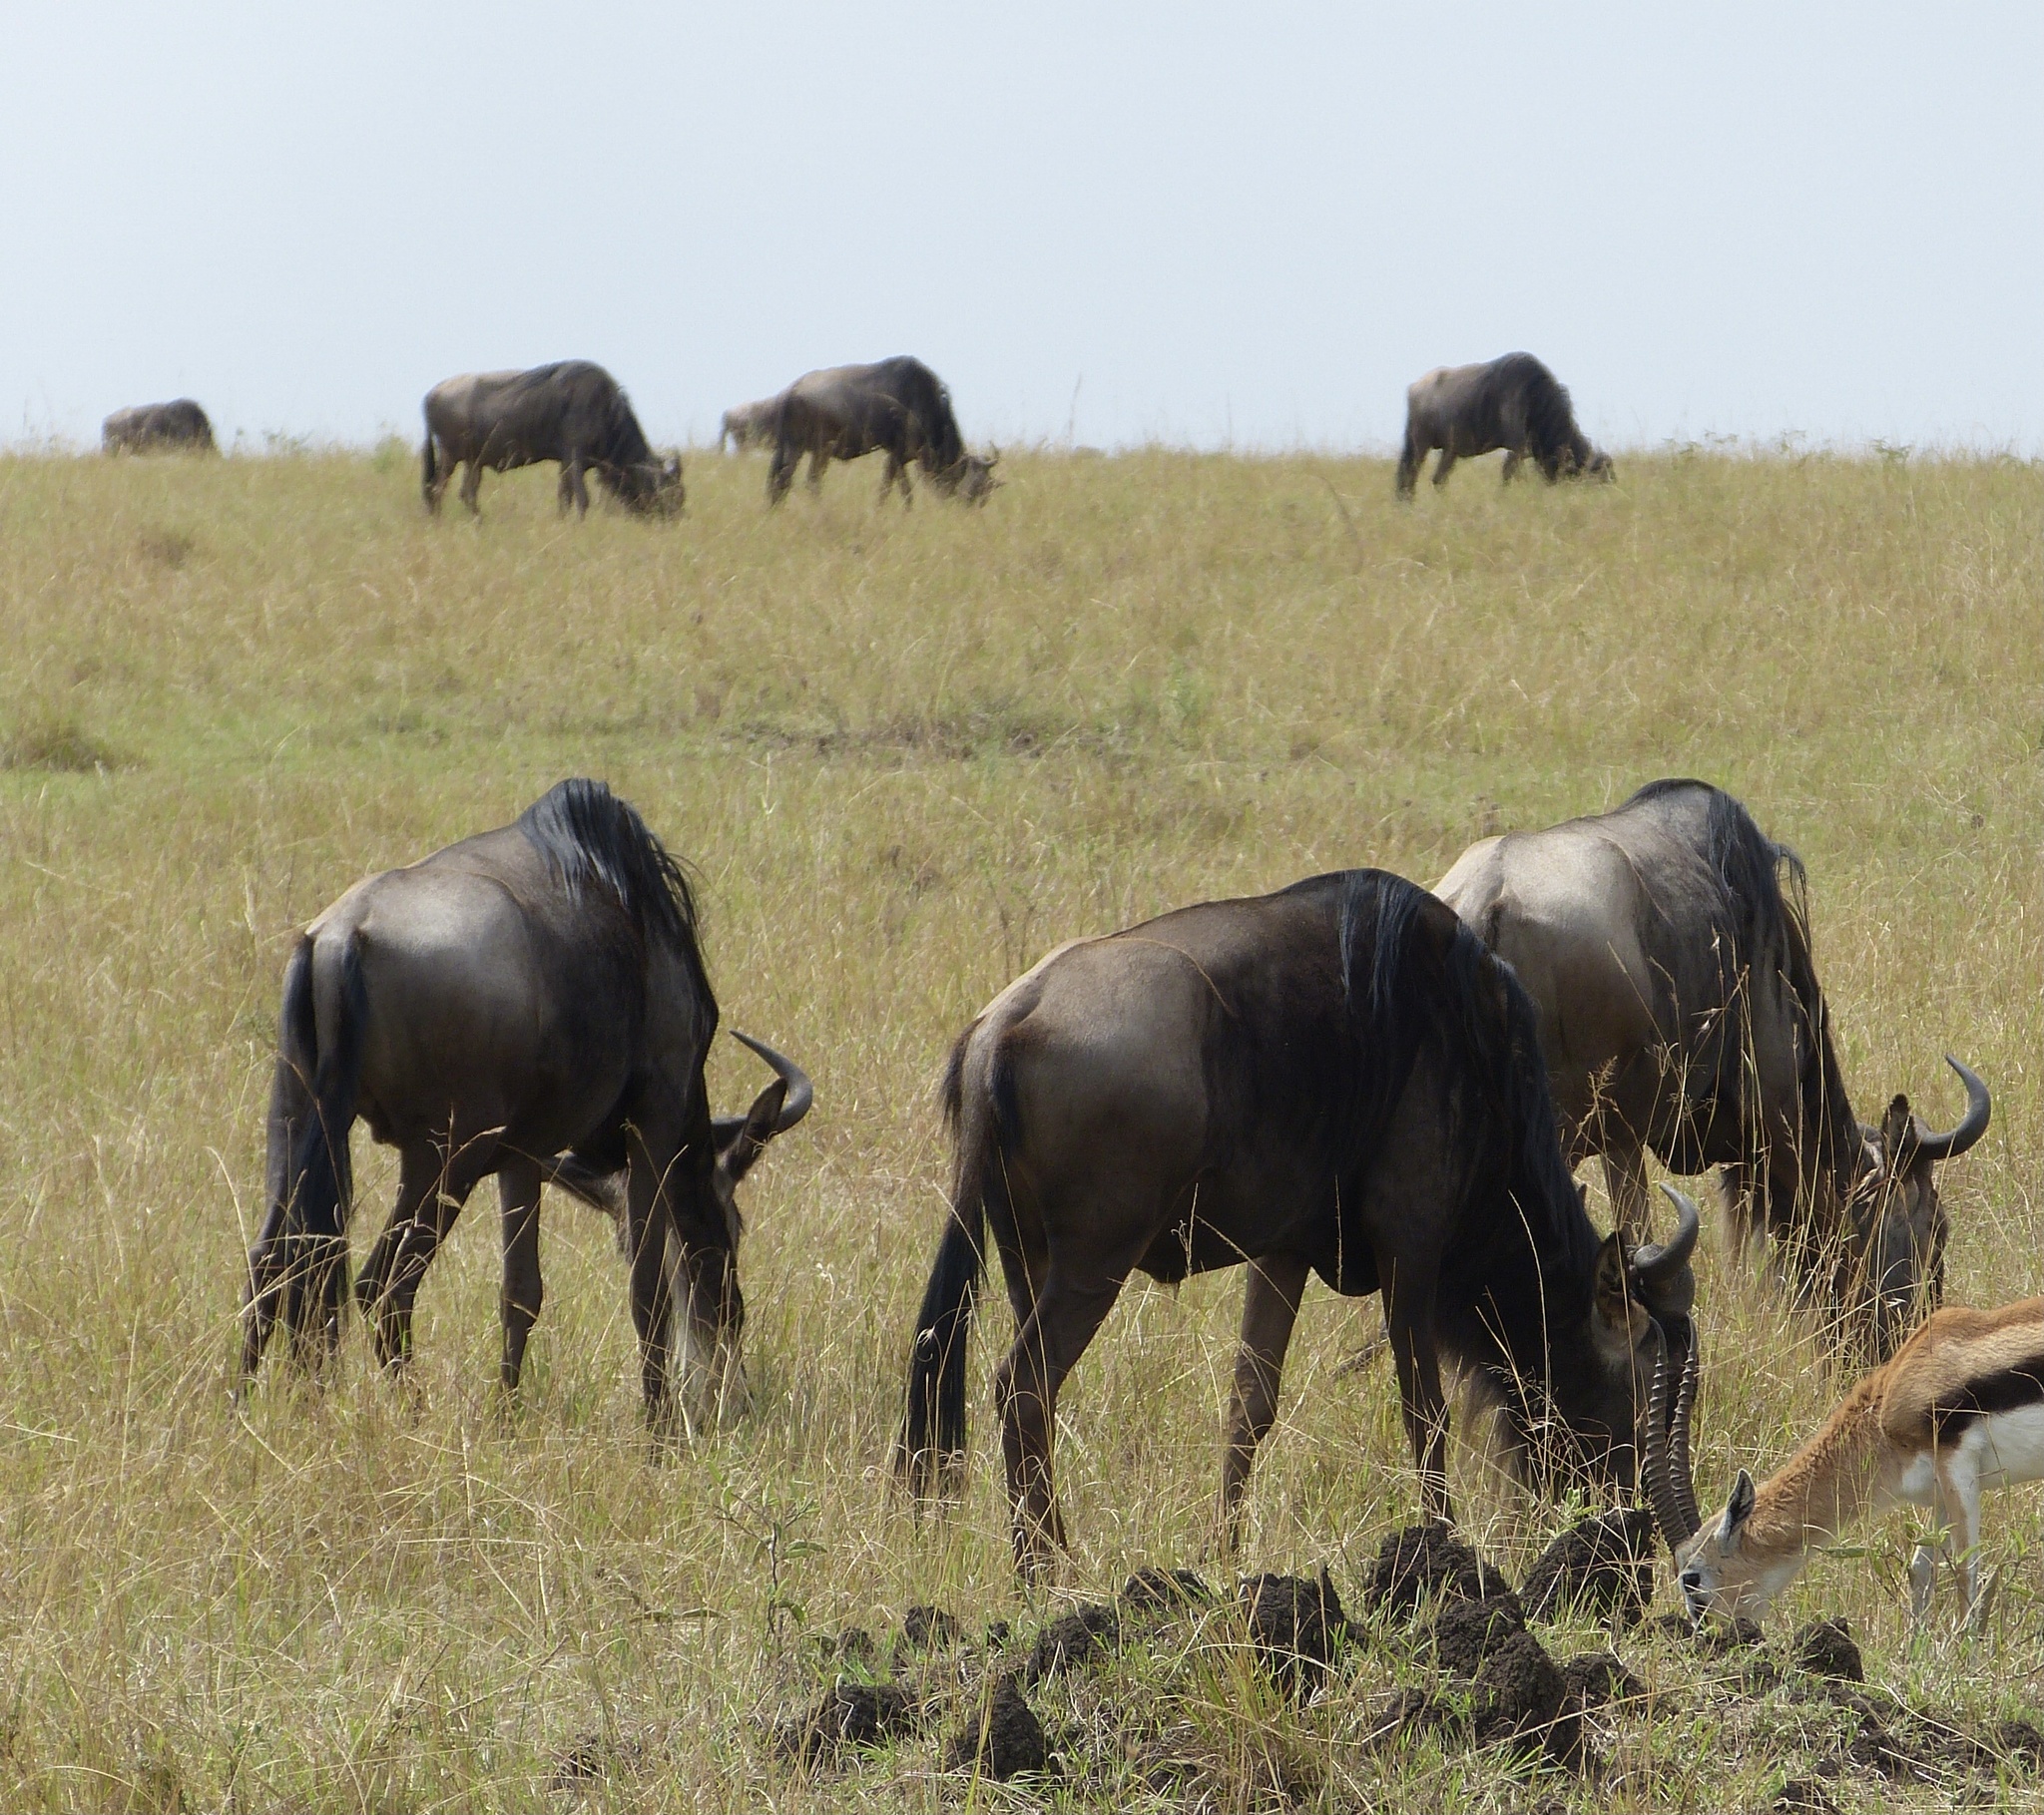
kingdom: Animalia
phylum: Chordata
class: Mammalia
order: Artiodactyla
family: Bovidae
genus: Connochaetes
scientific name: Connochaetes taurinus
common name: Blue wildebeest
